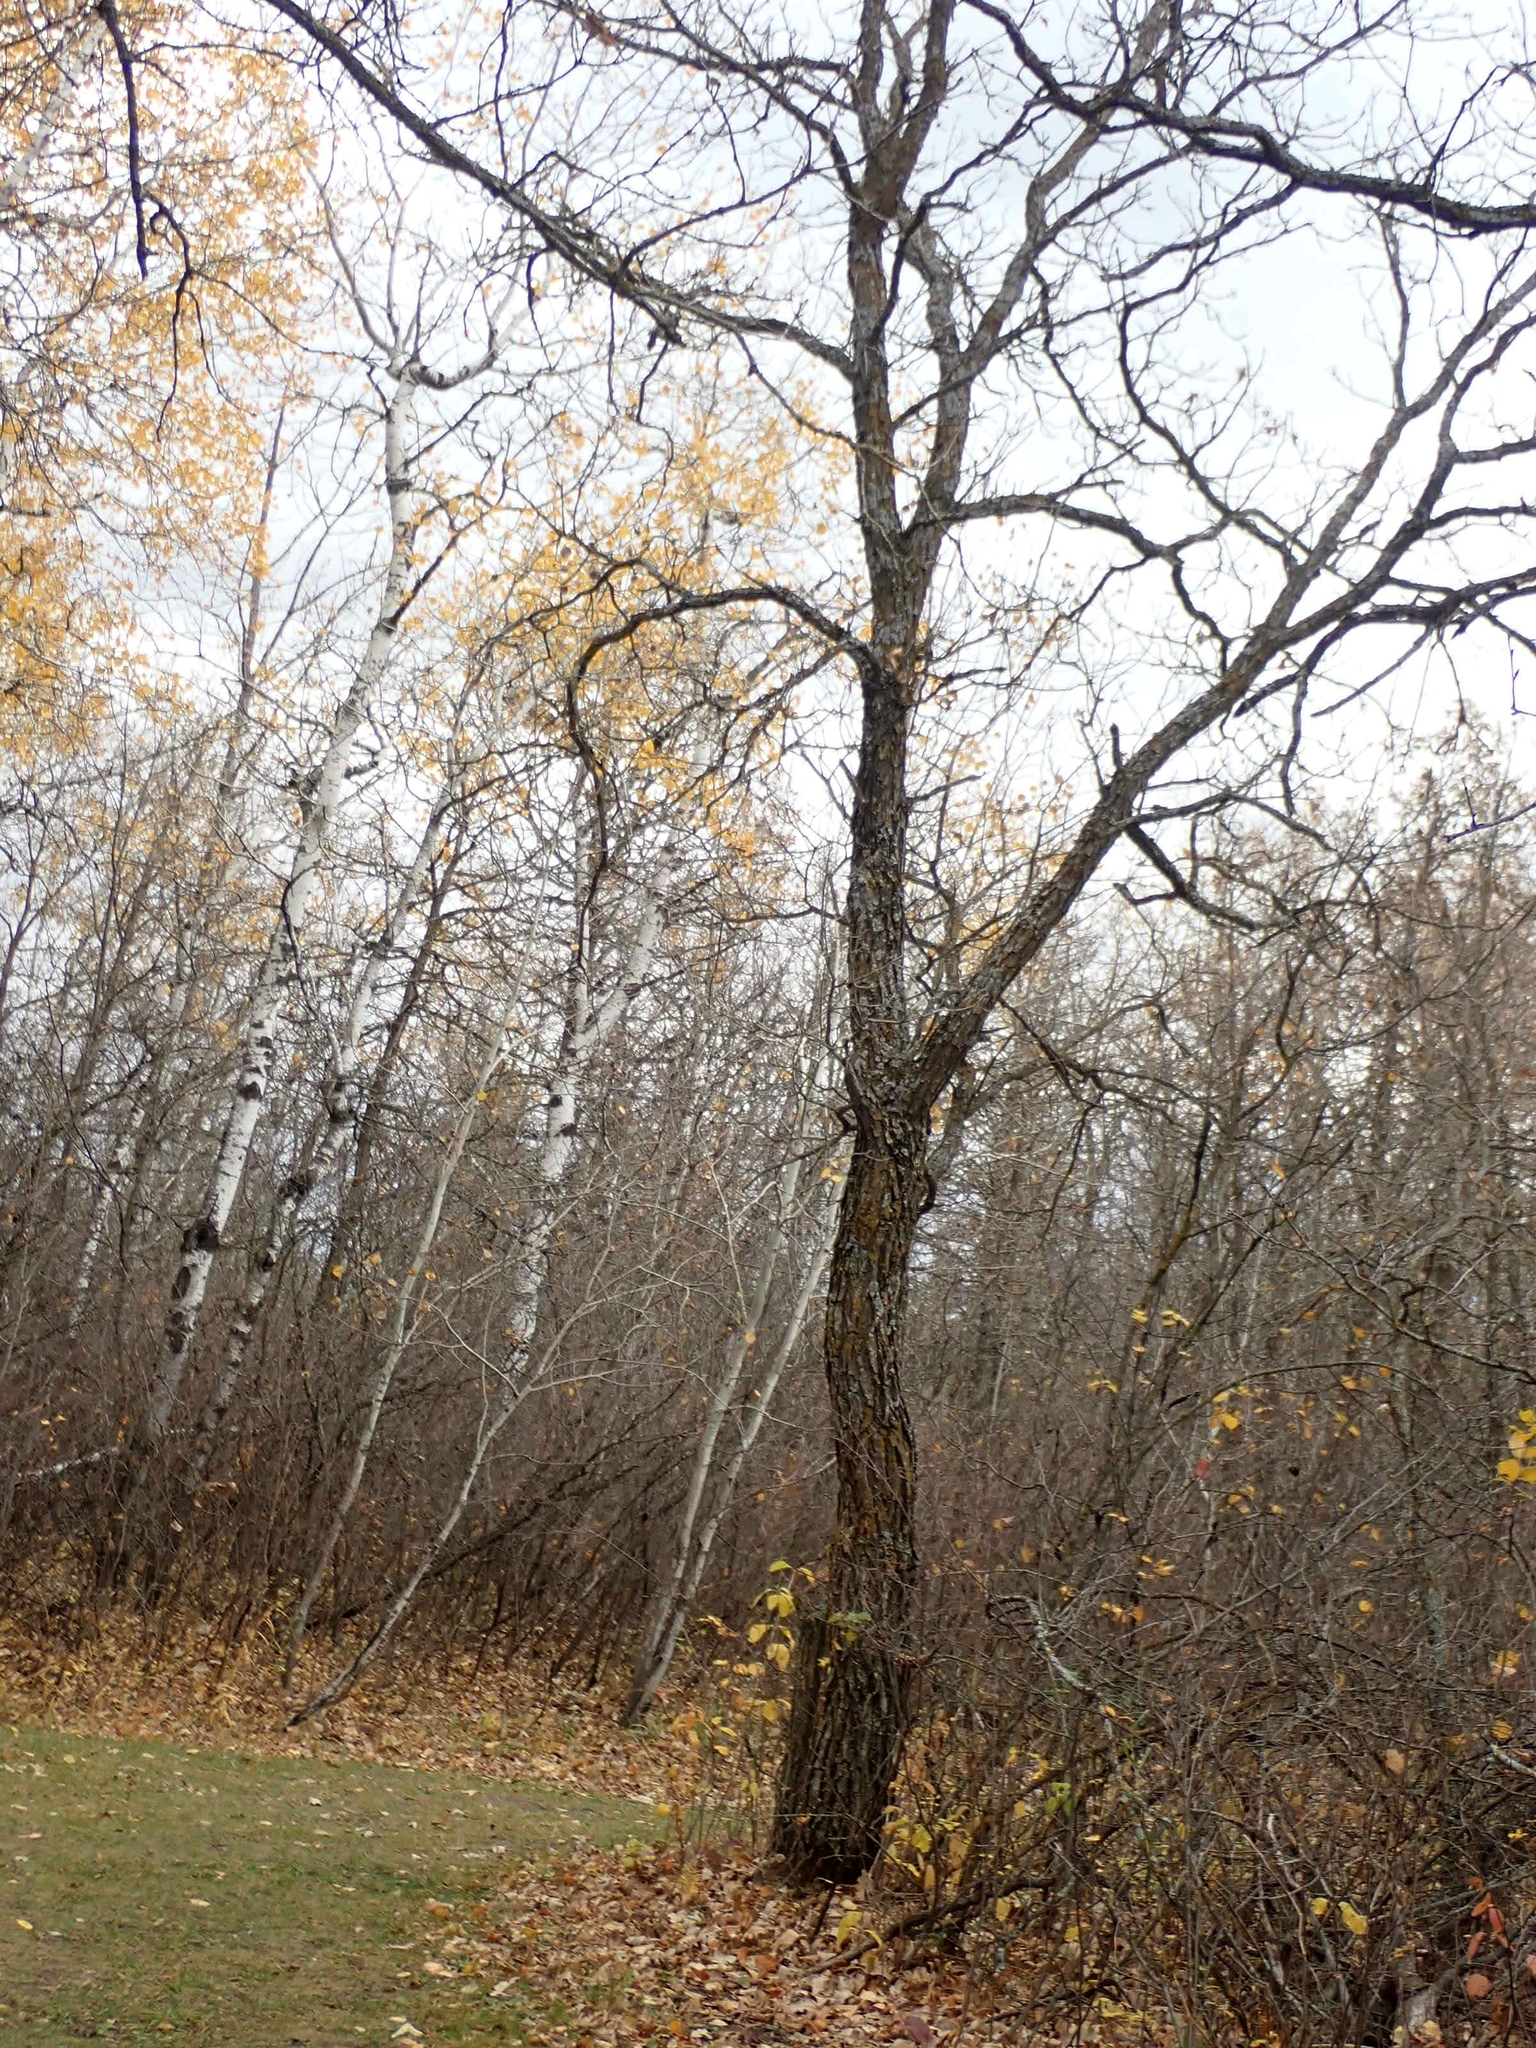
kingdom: Plantae
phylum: Tracheophyta
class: Magnoliopsida
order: Fagales
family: Fagaceae
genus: Quercus
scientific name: Quercus macrocarpa
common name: Bur oak
